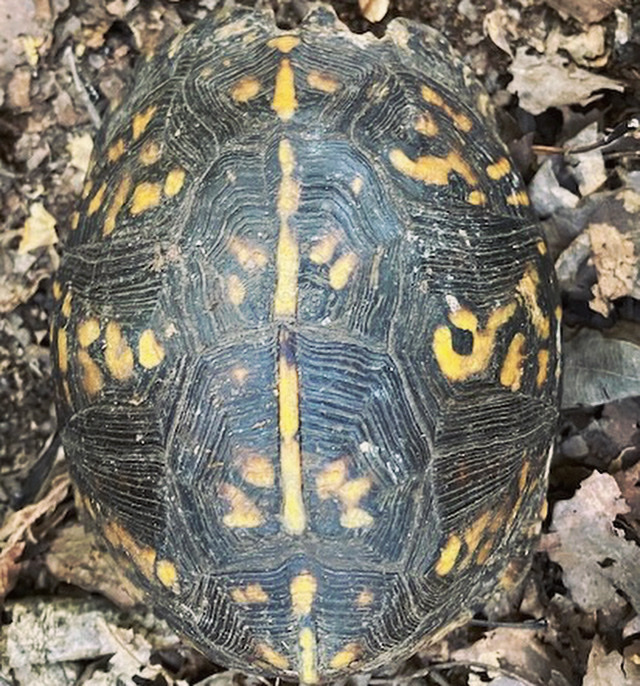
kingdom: Animalia
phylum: Chordata
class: Testudines
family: Emydidae
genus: Terrapene
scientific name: Terrapene carolina
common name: Common box turtle
